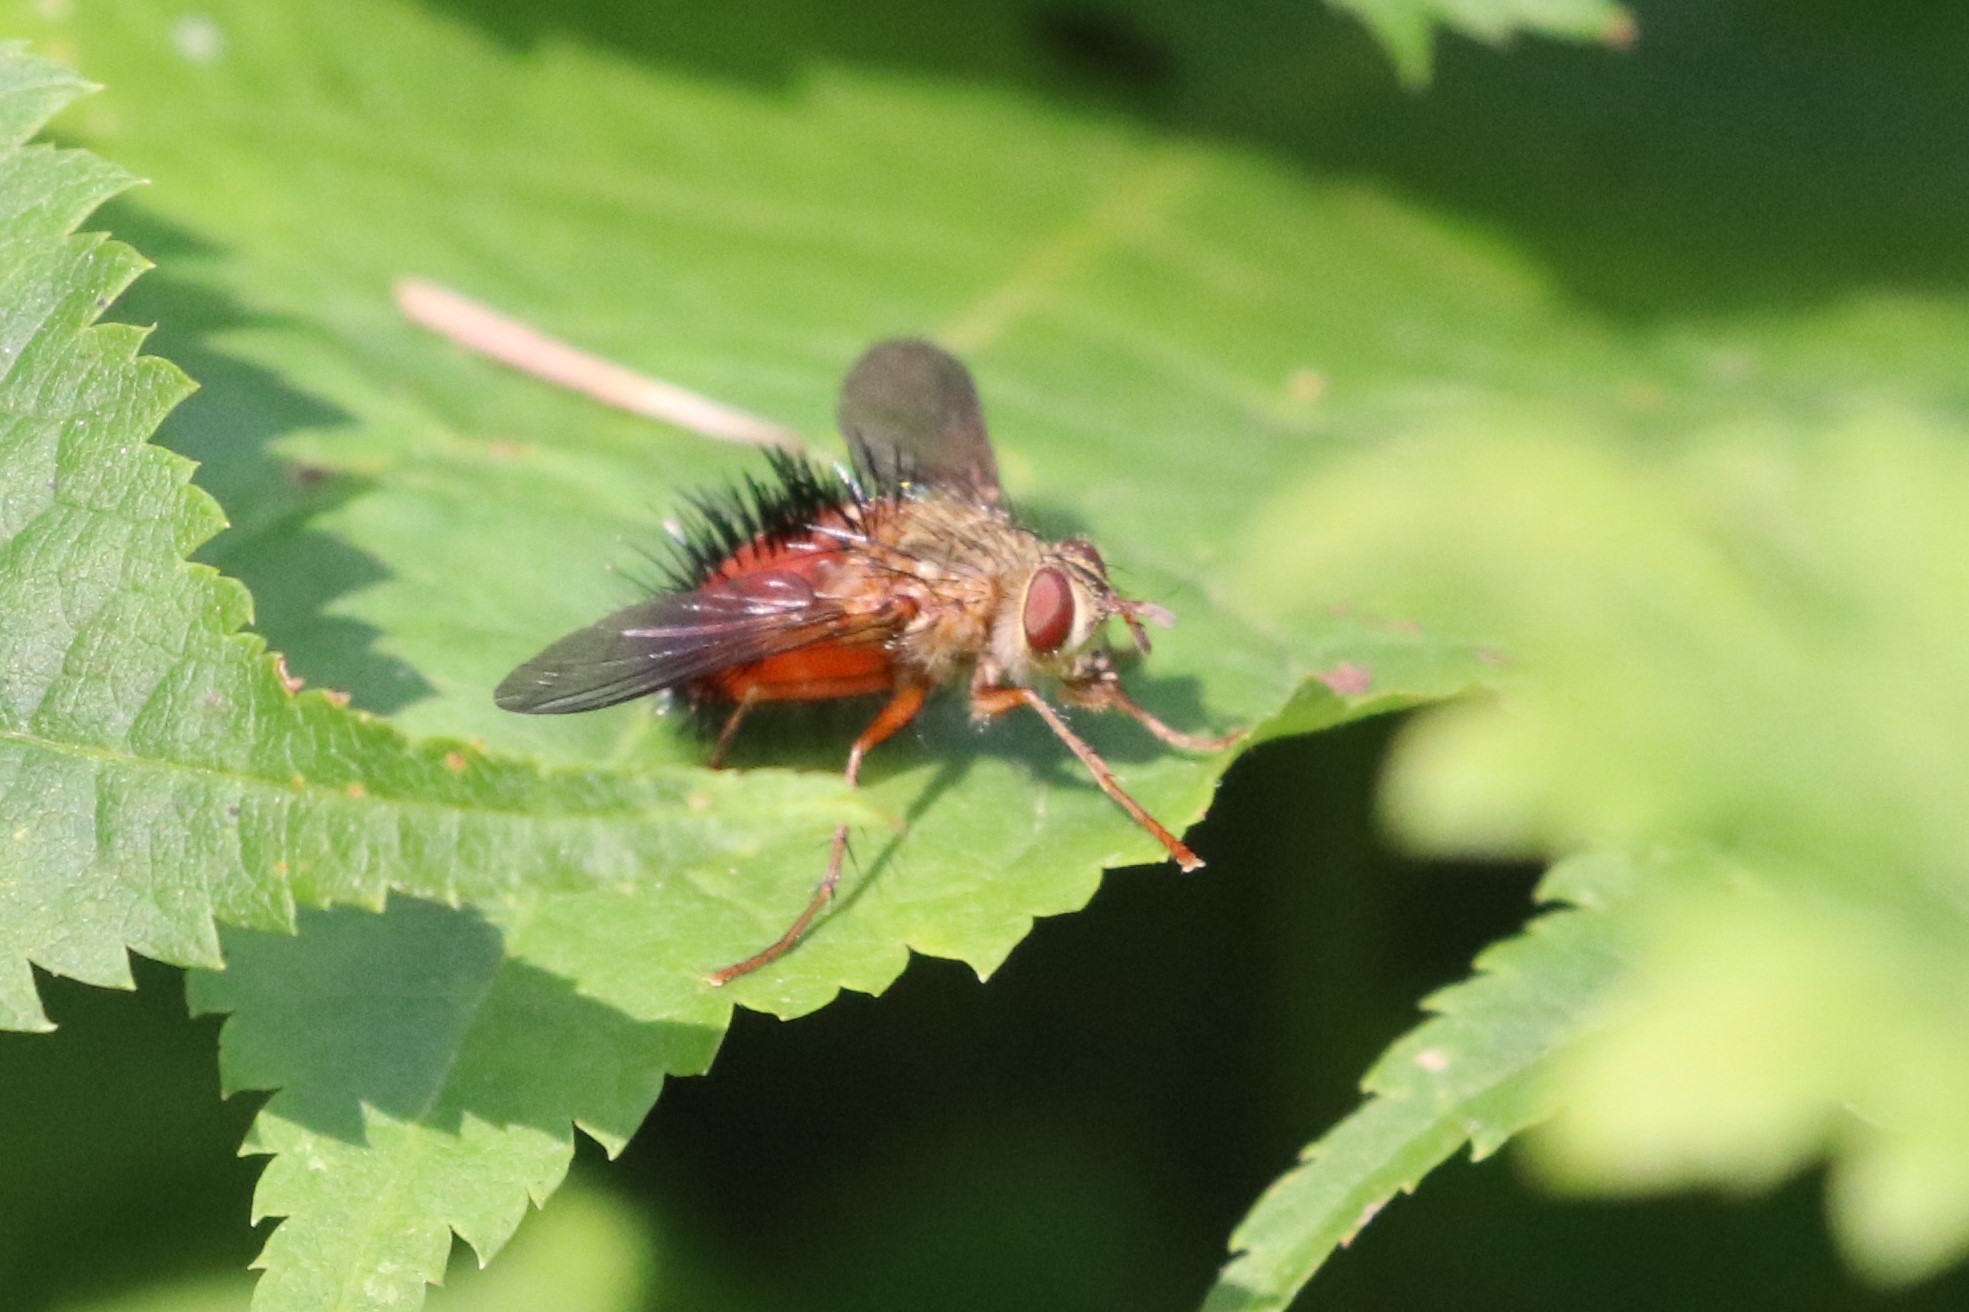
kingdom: Animalia
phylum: Arthropoda
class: Insecta
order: Diptera
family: Tachinidae
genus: Hystricia
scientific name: Hystricia abrupta
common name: Tomato bristle fly
